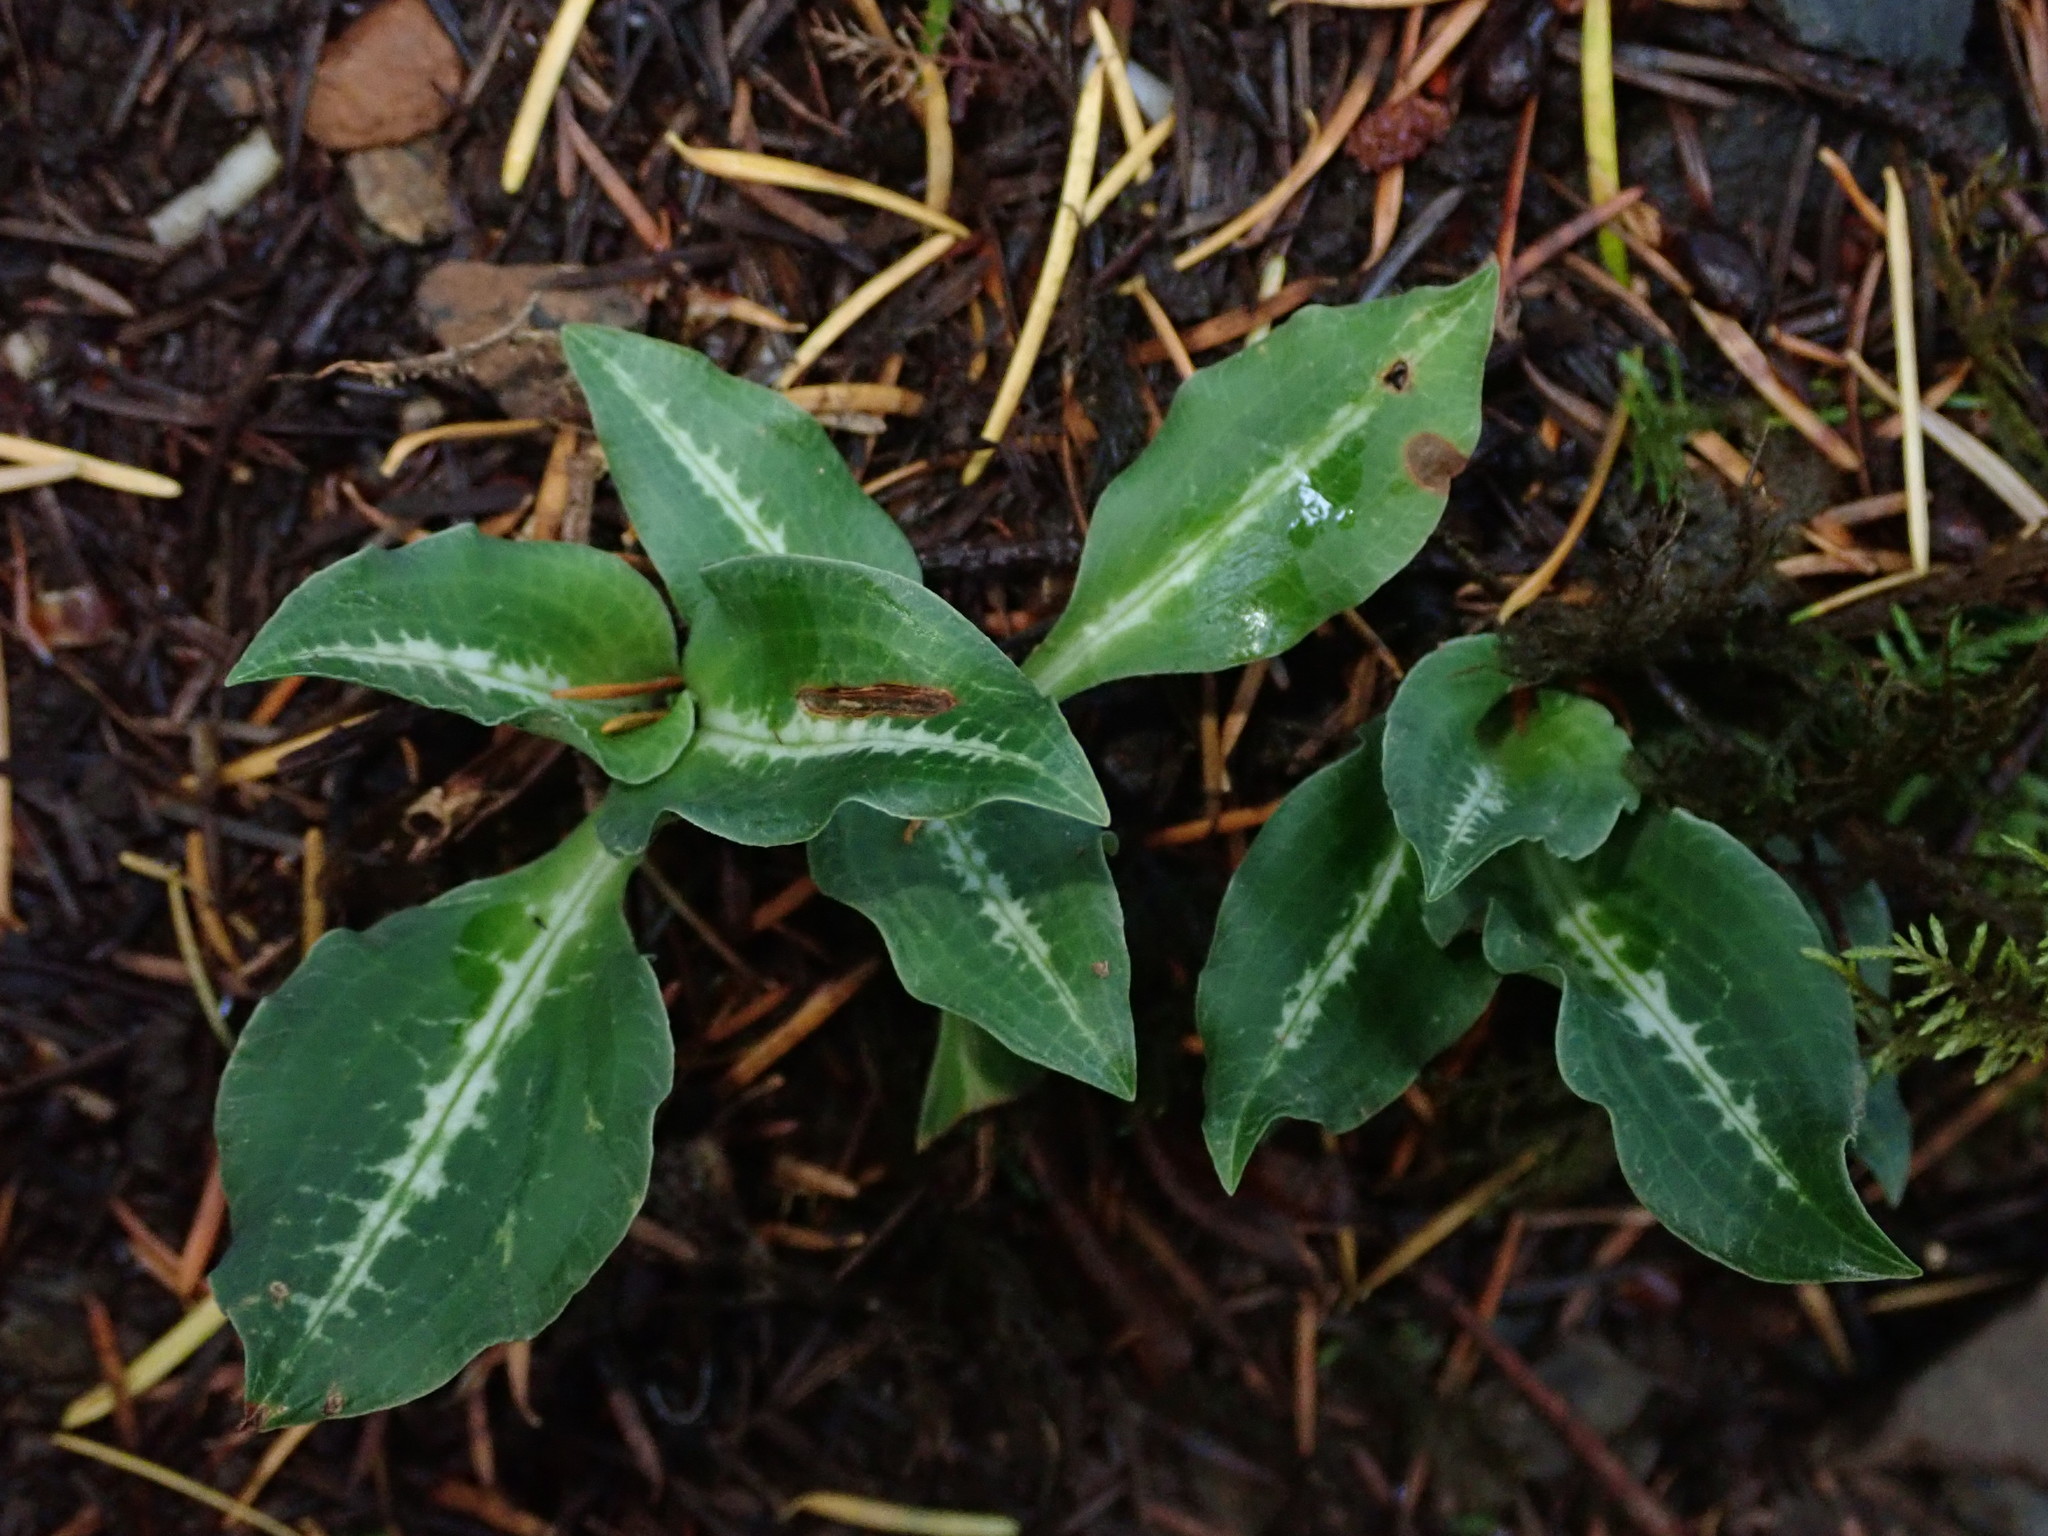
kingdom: Plantae
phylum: Tracheophyta
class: Liliopsida
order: Asparagales
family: Orchidaceae
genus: Goodyera
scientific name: Goodyera oblongifolia
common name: Giant rattlesnake-plantain
